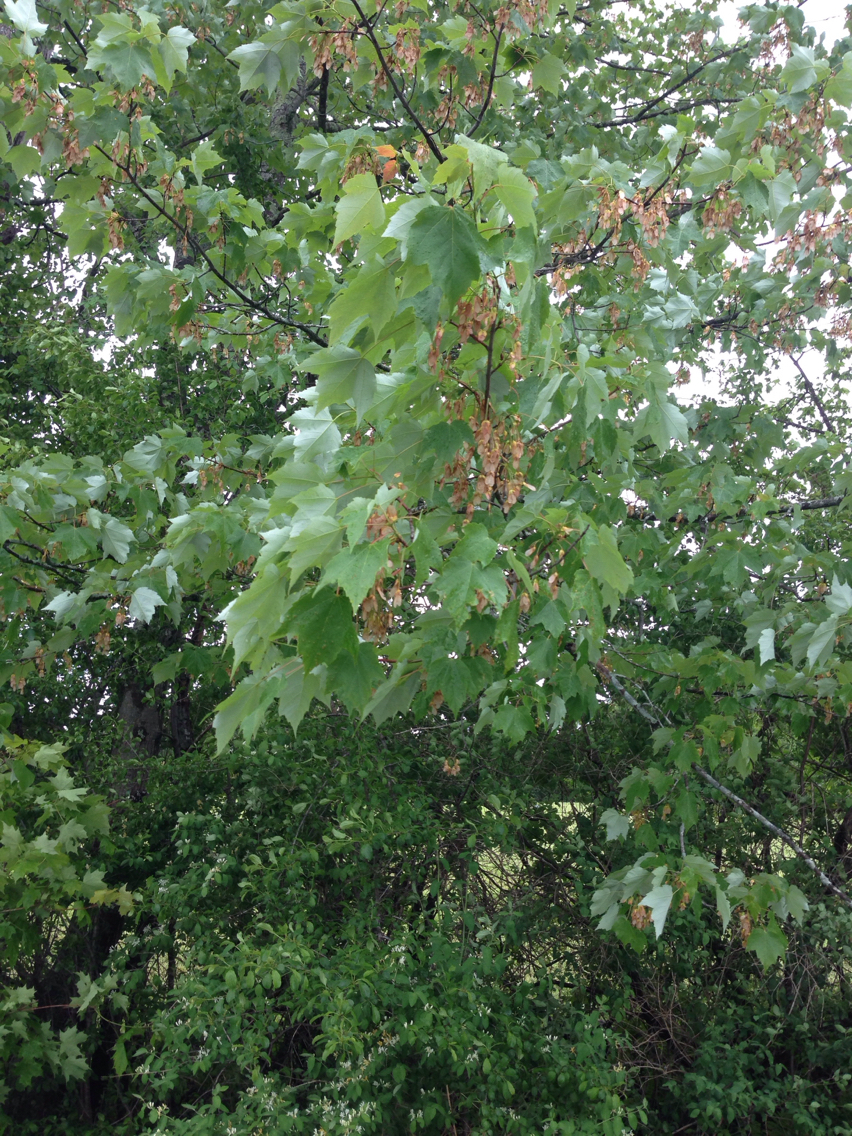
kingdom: Plantae
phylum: Tracheophyta
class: Magnoliopsida
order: Sapindales
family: Sapindaceae
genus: Acer
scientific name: Acer rubrum
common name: Red maple
